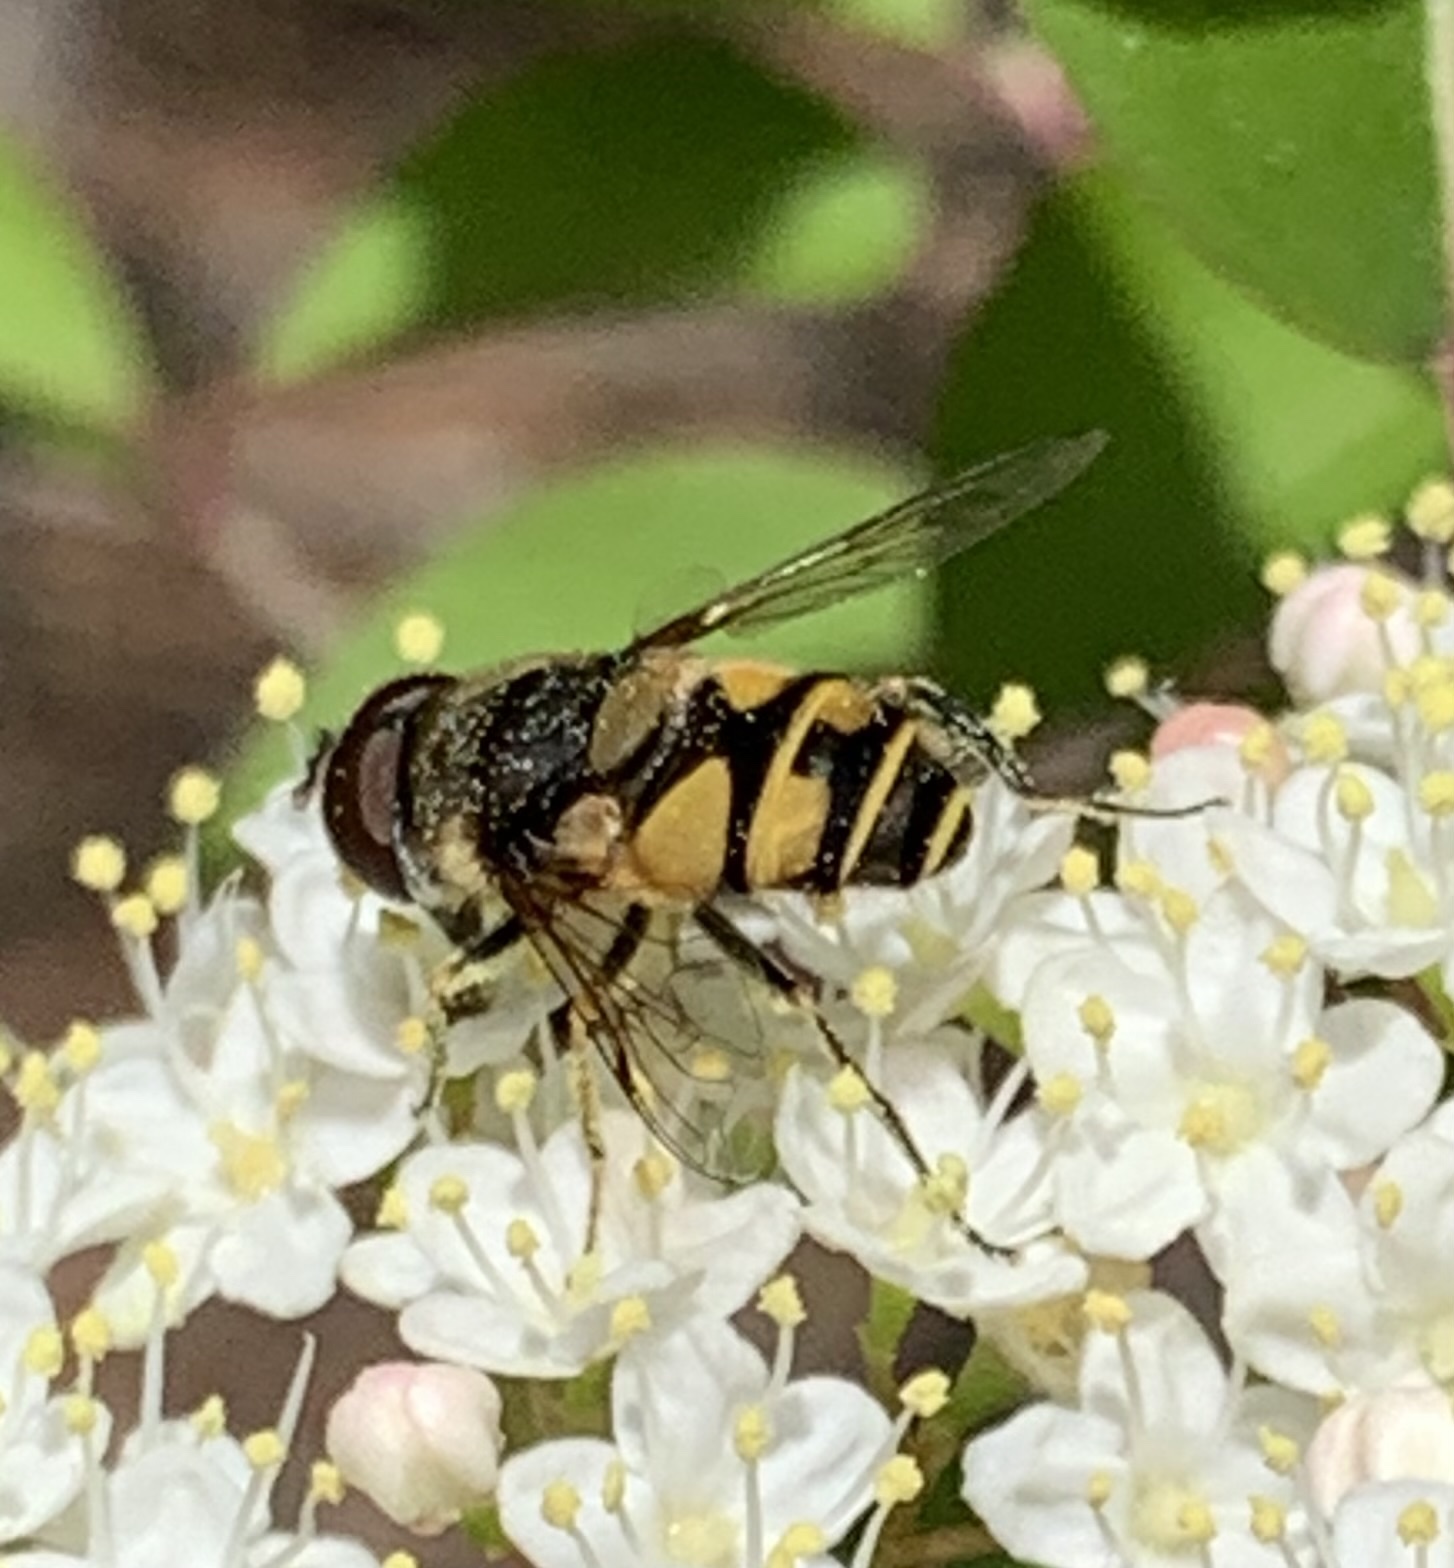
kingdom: Animalia
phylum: Arthropoda
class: Insecta
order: Diptera
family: Syrphidae
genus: Eristalis
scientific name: Eristalis transversa
